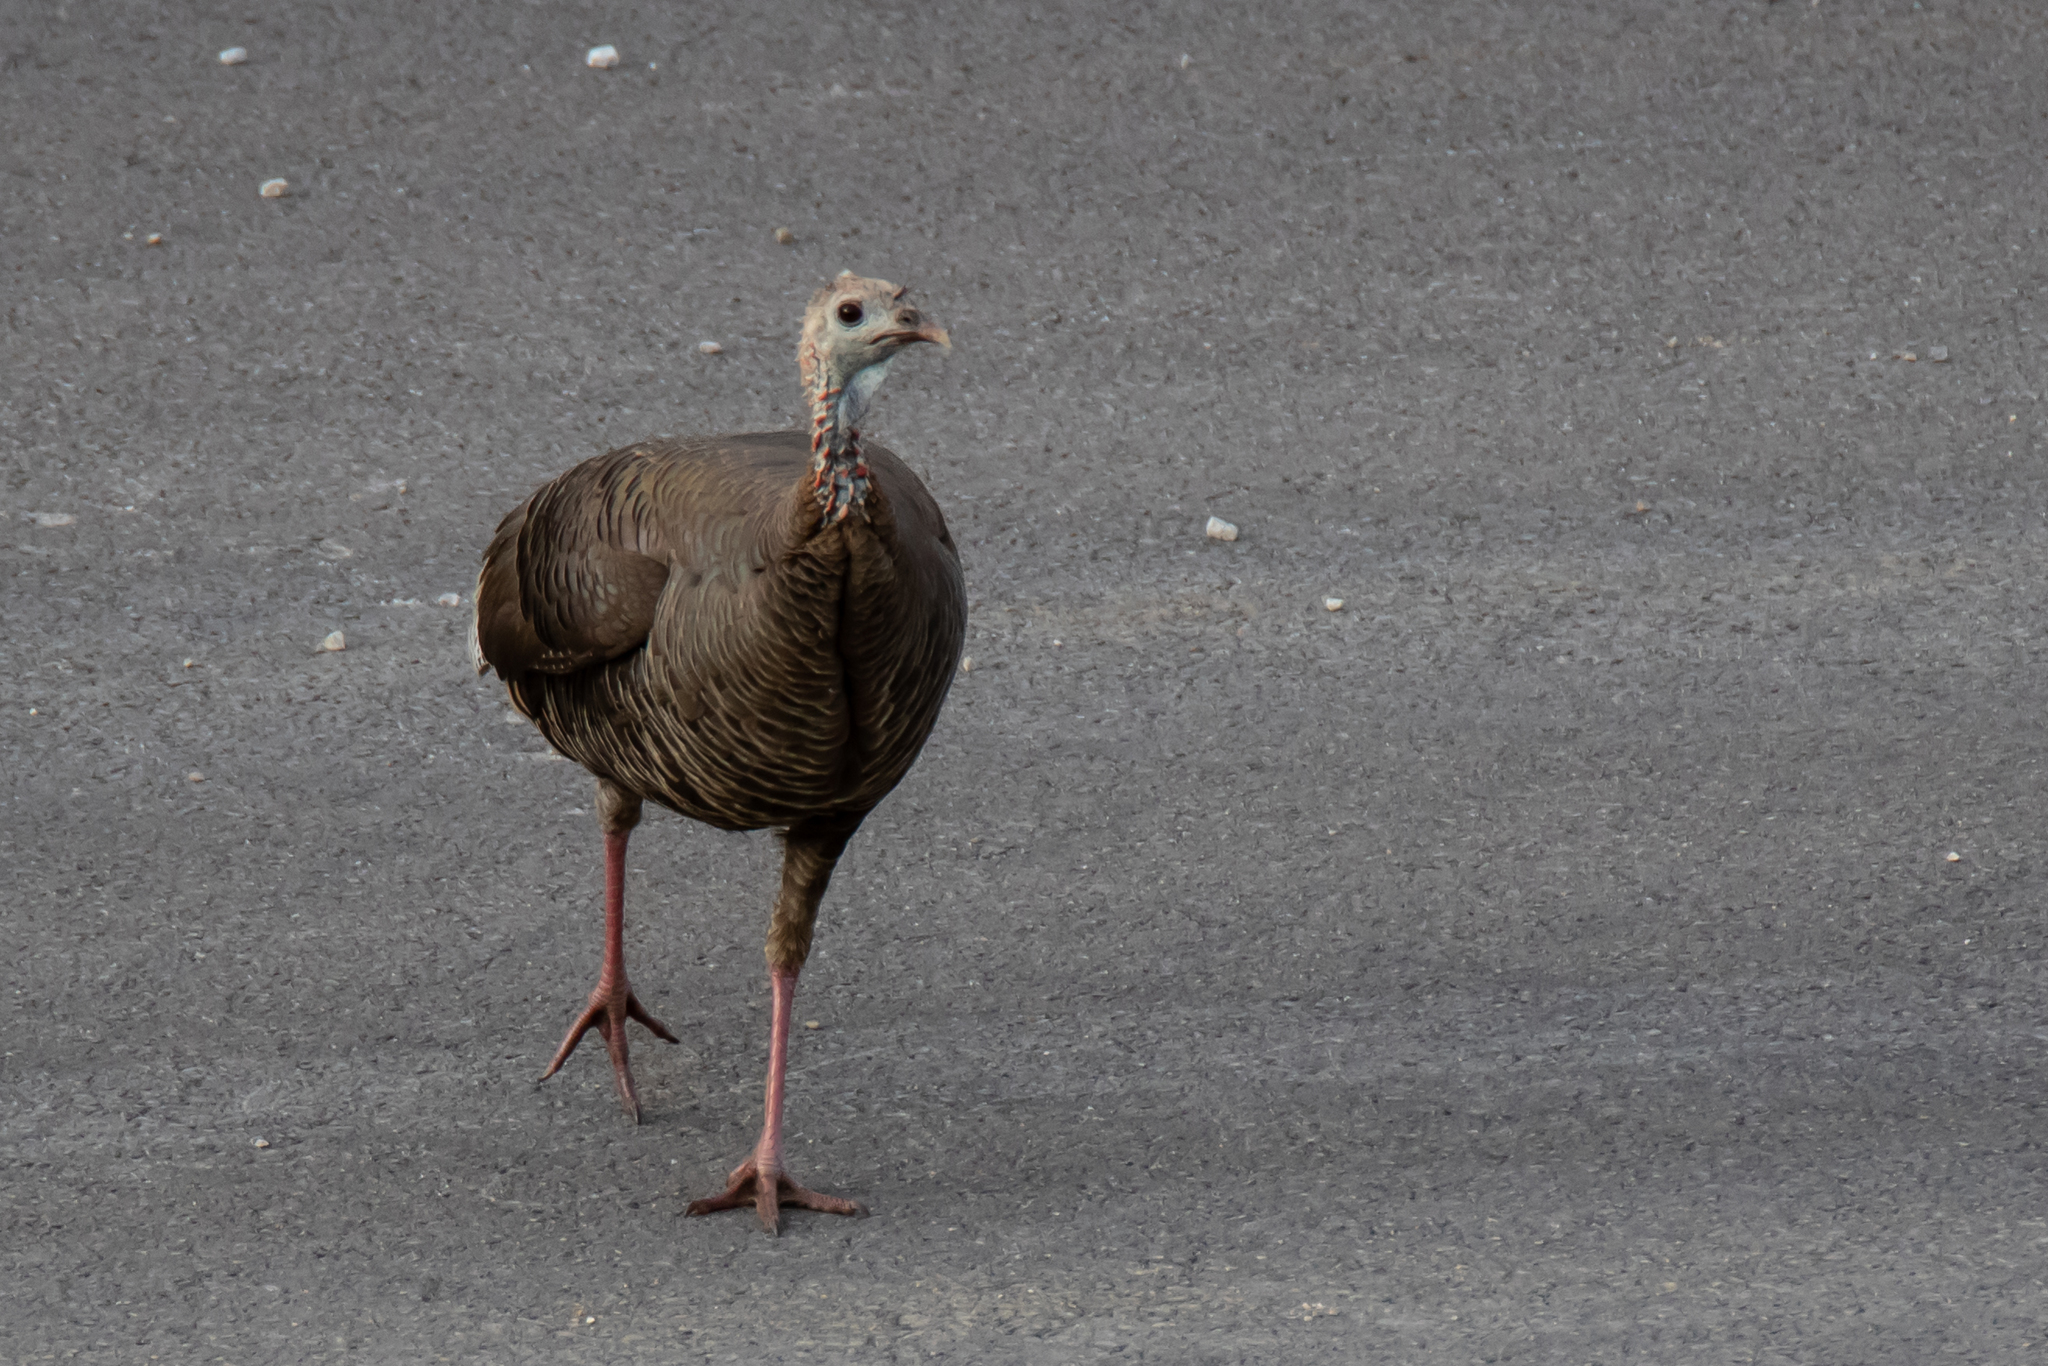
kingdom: Animalia
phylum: Chordata
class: Aves
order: Galliformes
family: Phasianidae
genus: Meleagris
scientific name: Meleagris gallopavo
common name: Wild turkey
